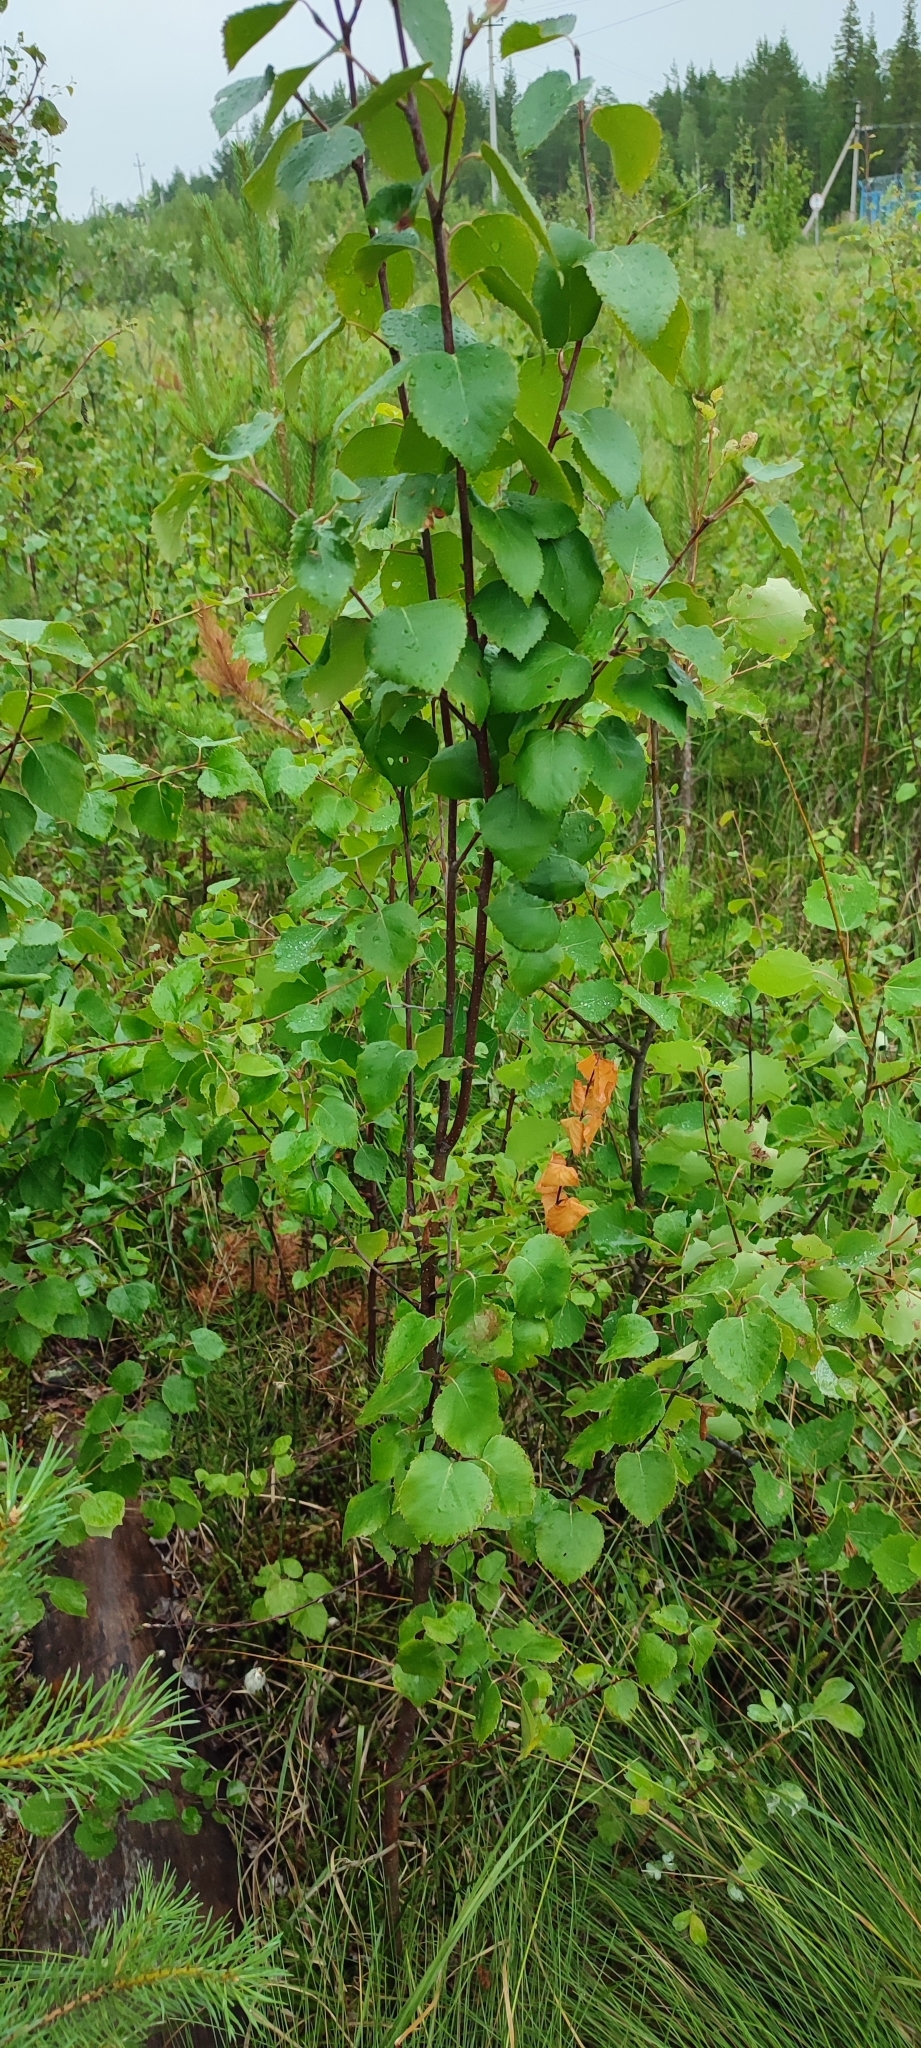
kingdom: Plantae
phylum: Tracheophyta
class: Magnoliopsida
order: Fagales
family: Betulaceae
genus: Betula
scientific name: Betula pubescens
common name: Downy birch
